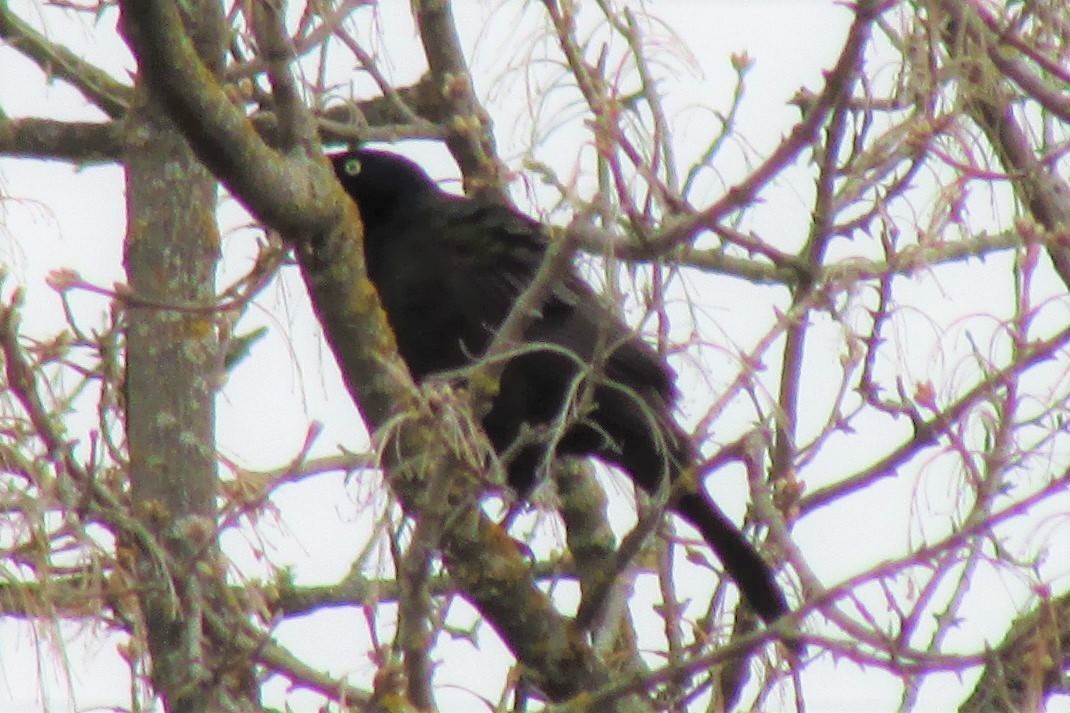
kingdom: Animalia
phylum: Chordata
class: Aves
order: Passeriformes
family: Icteridae
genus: Quiscalus
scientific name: Quiscalus quiscula
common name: Common grackle
